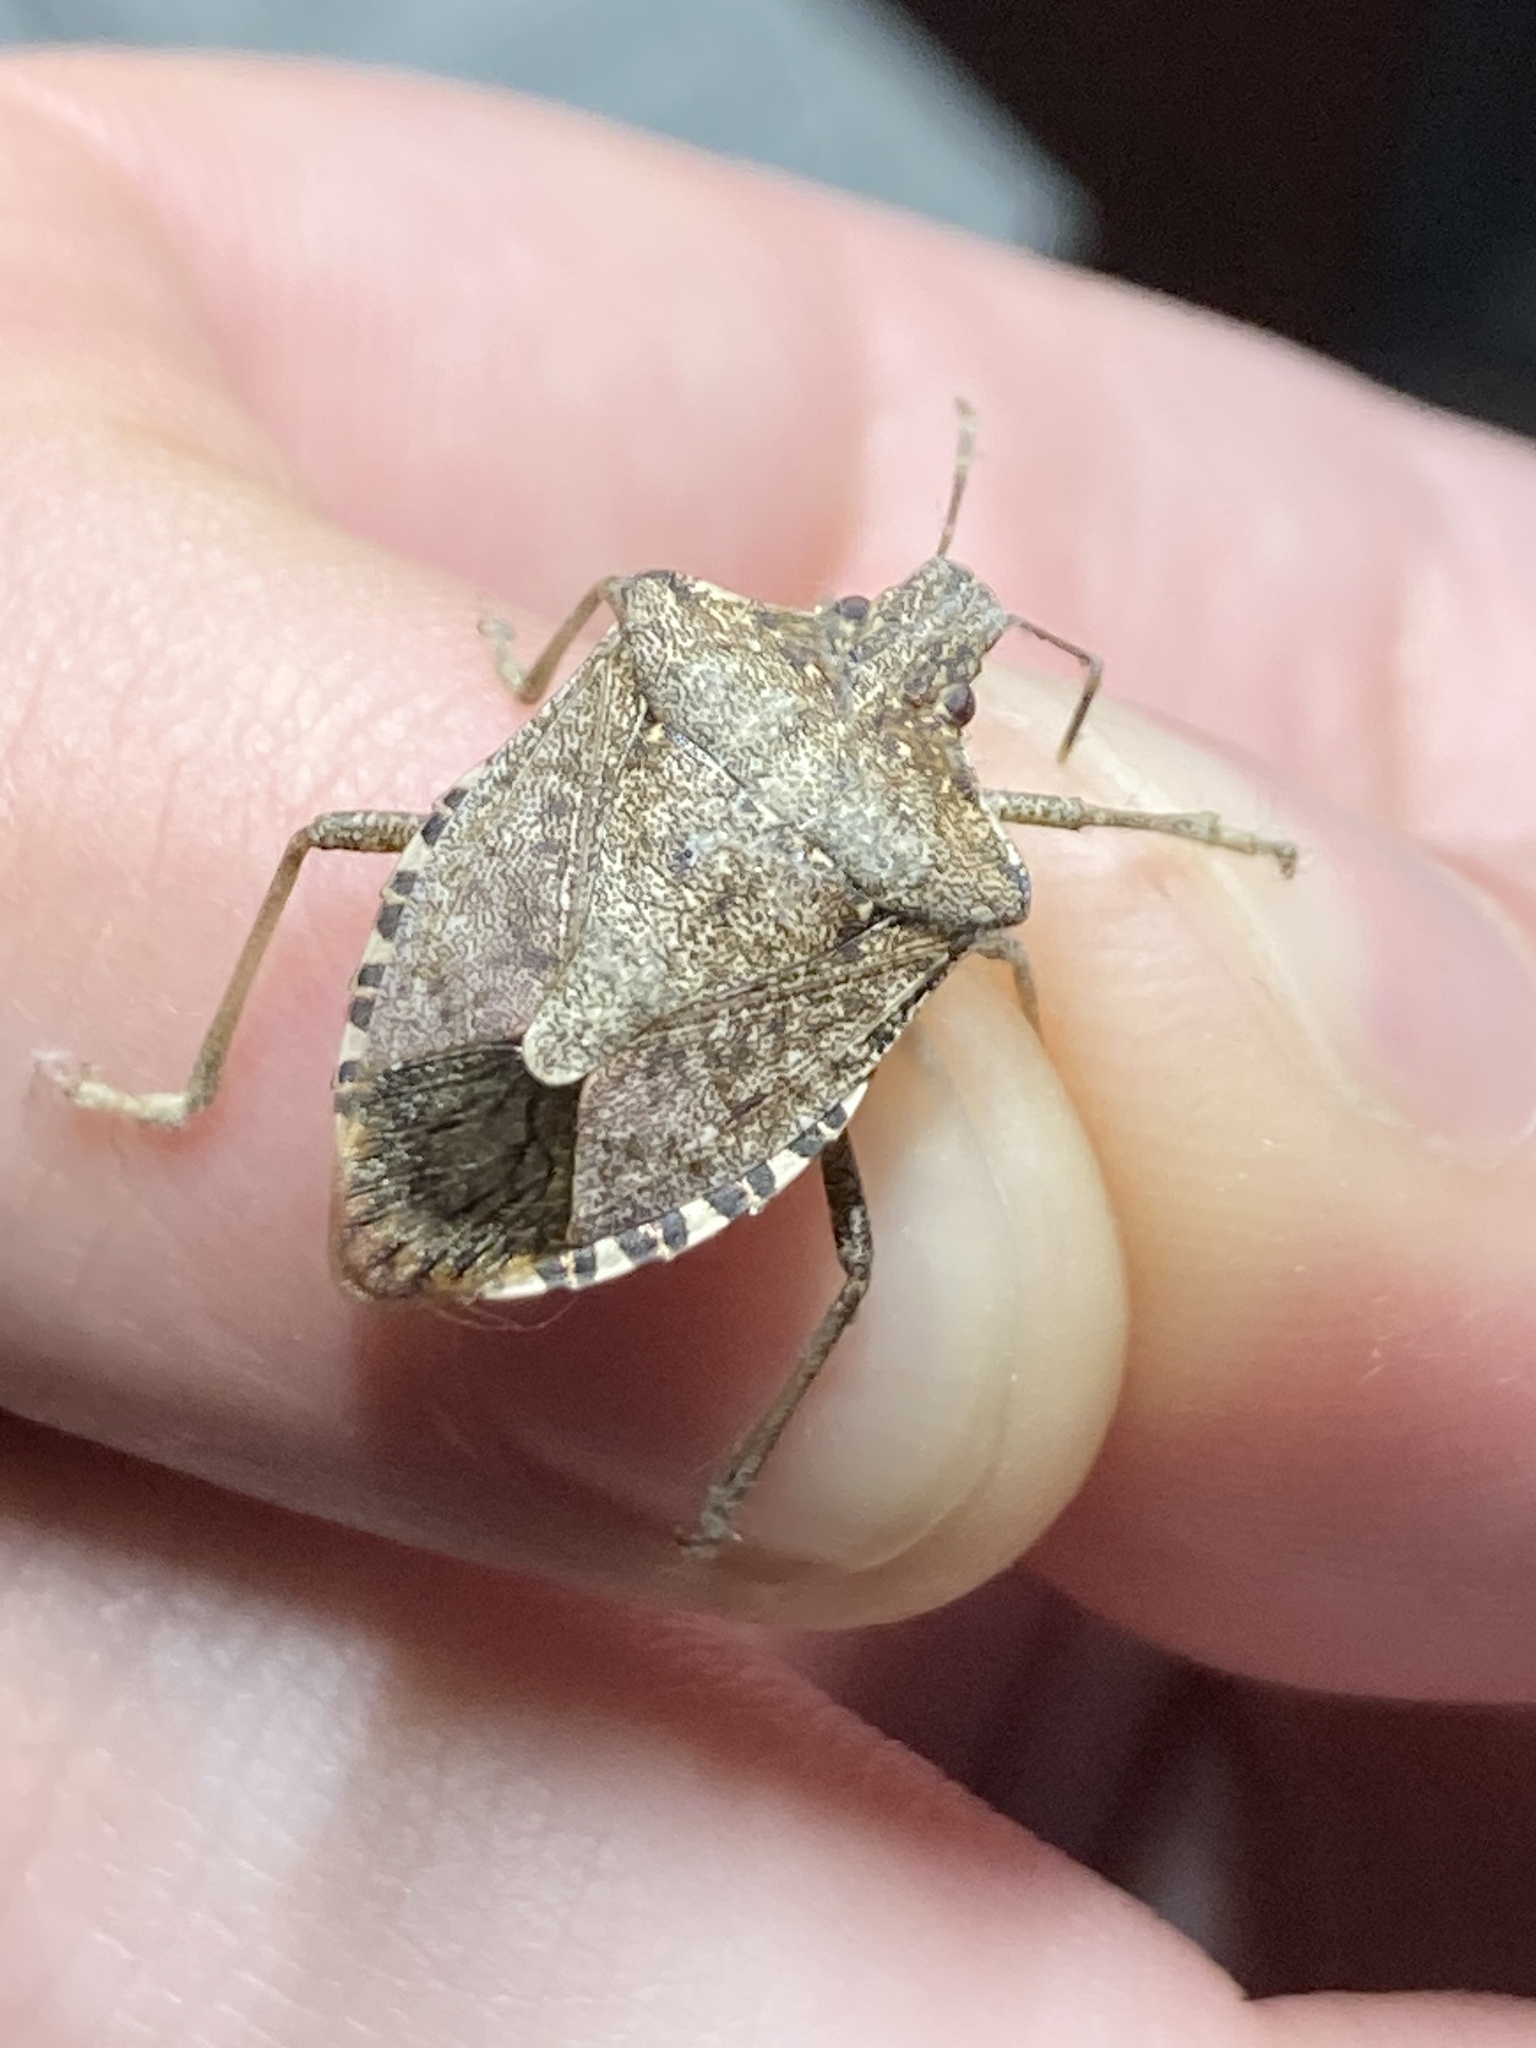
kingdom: Animalia
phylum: Arthropoda
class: Insecta
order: Hemiptera
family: Pentatomidae
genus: Halyomorpha
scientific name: Halyomorpha halys
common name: Brown marmorated stink bug
